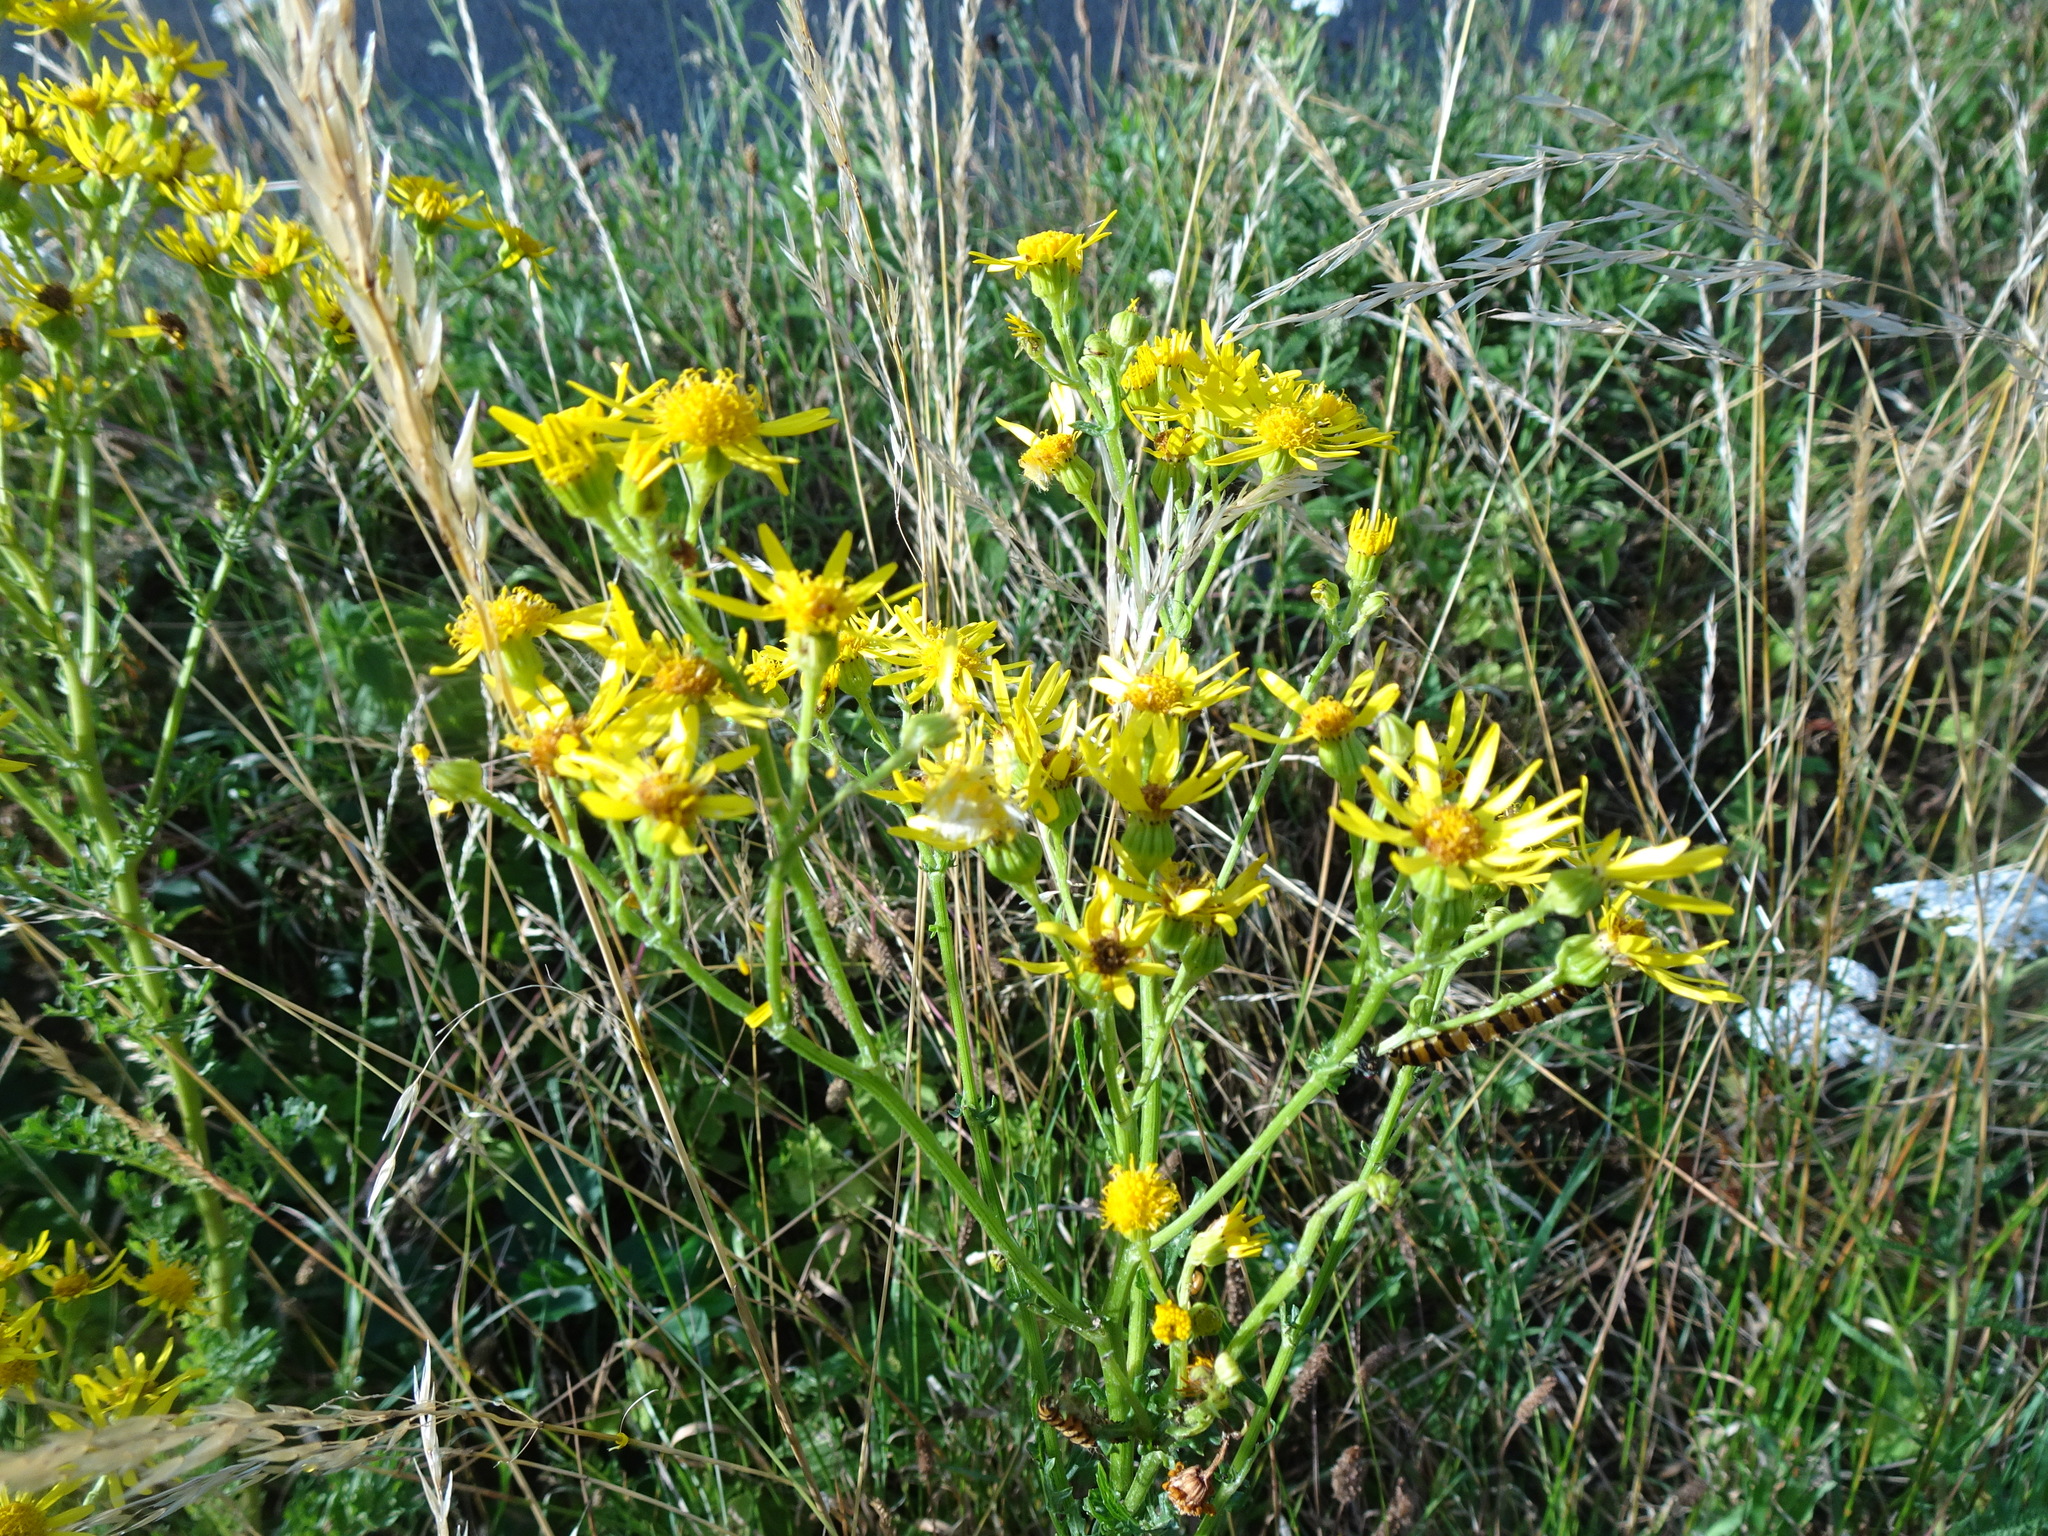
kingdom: Plantae
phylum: Tracheophyta
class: Magnoliopsida
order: Asterales
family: Asteraceae
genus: Jacobaea
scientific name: Jacobaea vulgaris
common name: Stinking willie
